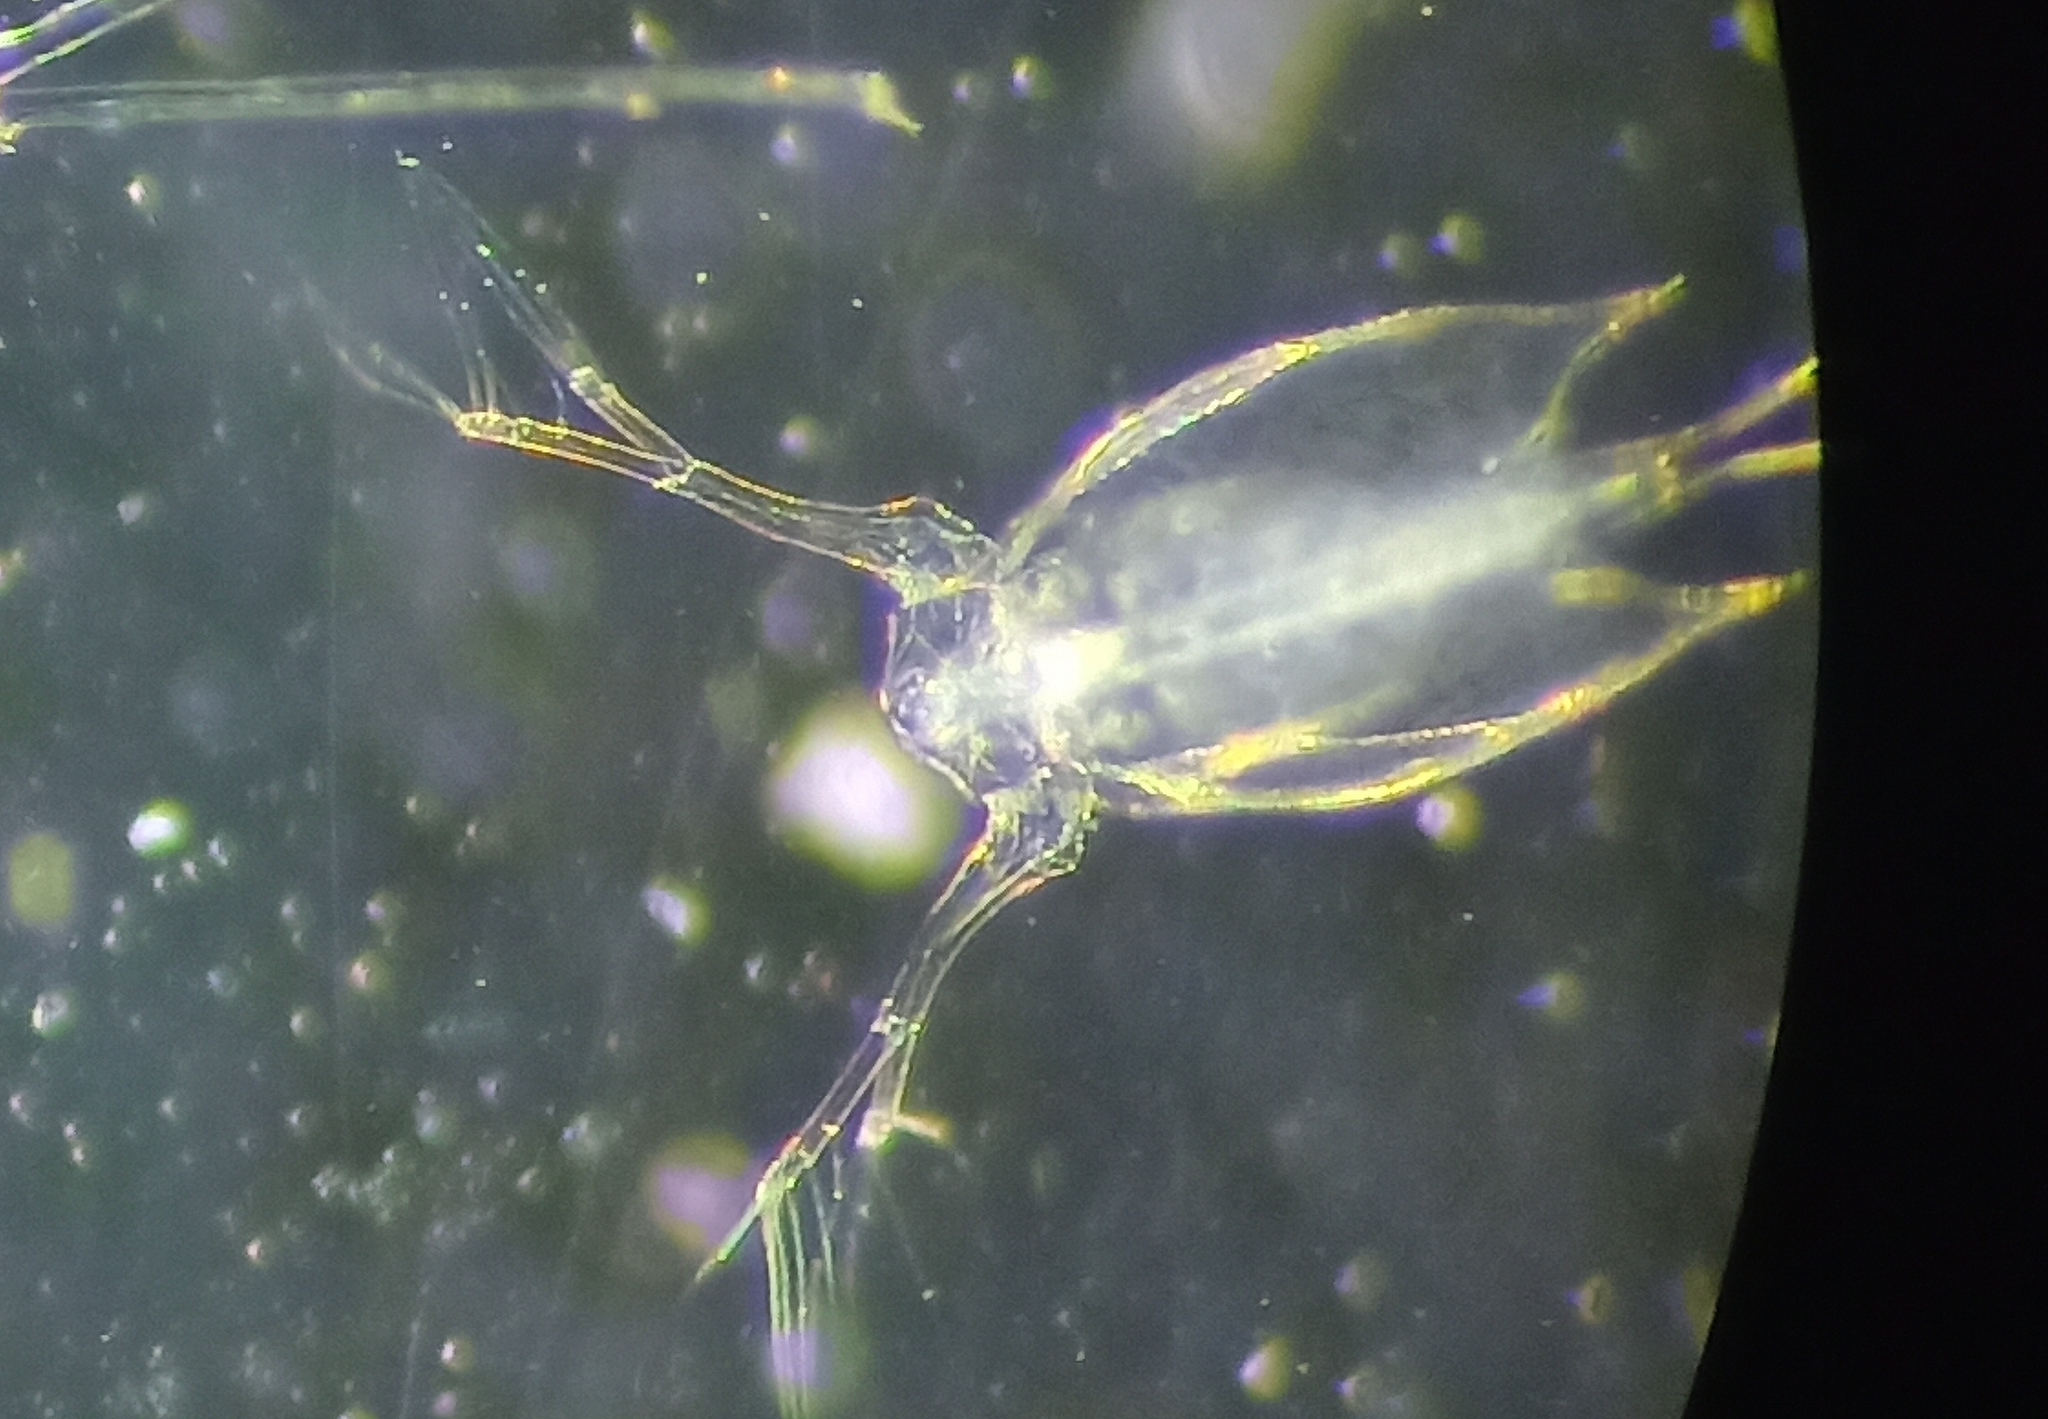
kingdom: Animalia
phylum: Arthropoda
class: Branchiopoda
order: Diplostraca
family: Sididae
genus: Penilia
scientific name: Penilia avirostris
